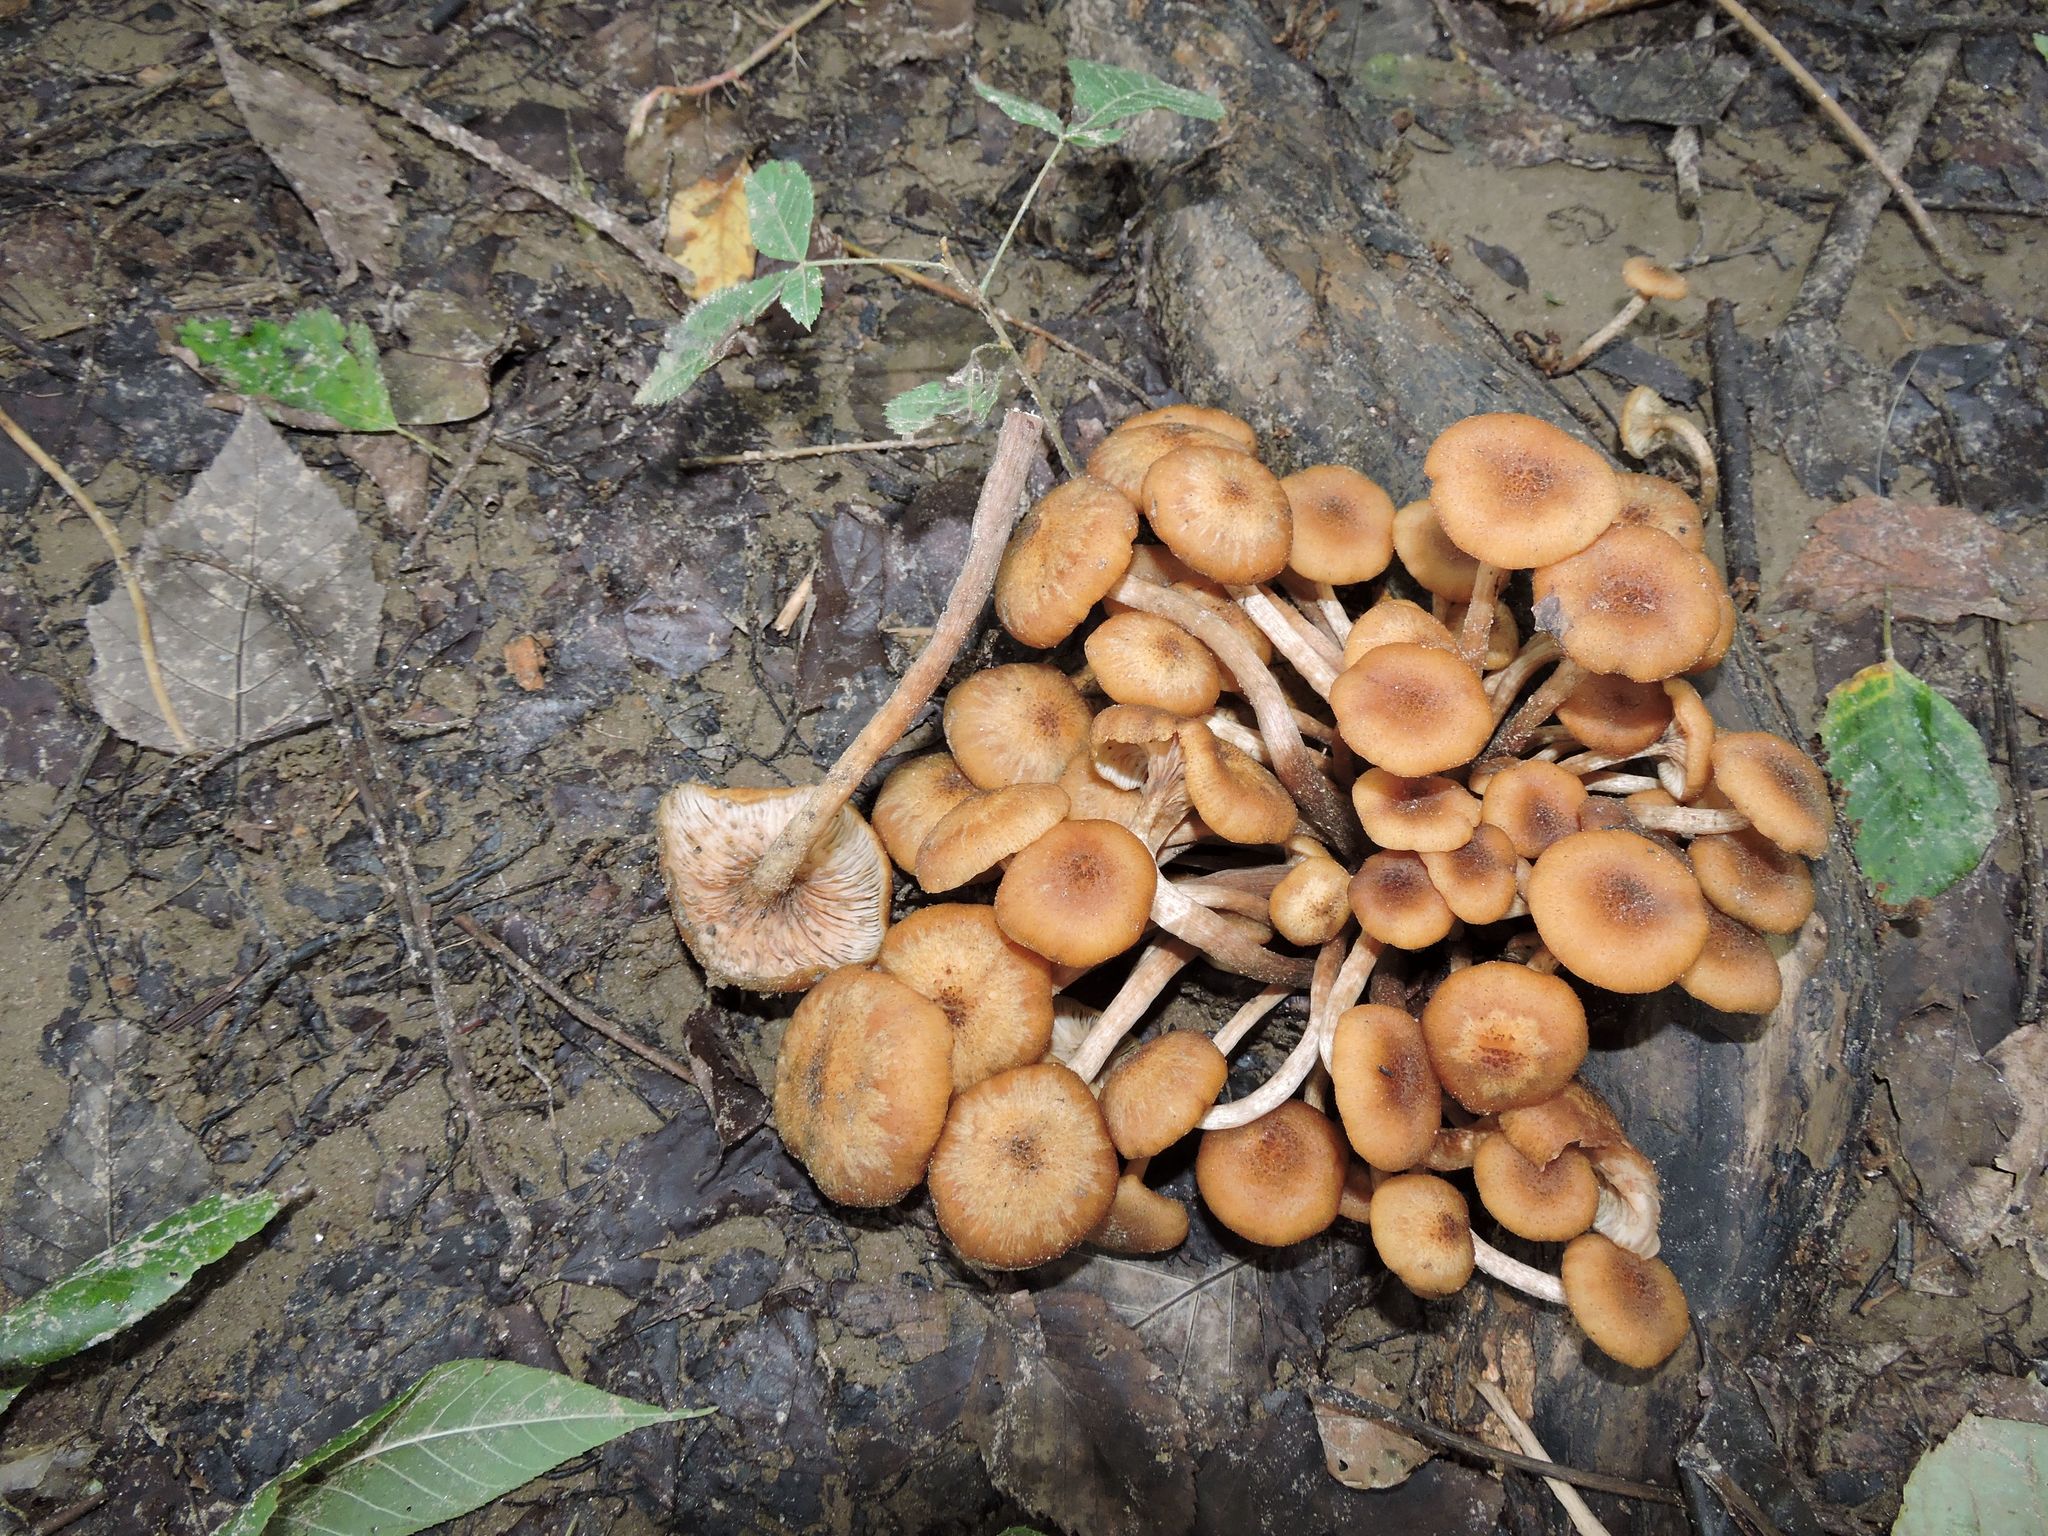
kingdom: Fungi
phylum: Basidiomycota
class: Agaricomycetes
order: Agaricales
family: Physalacriaceae
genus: Desarmillaria
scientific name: Desarmillaria caespitosa
